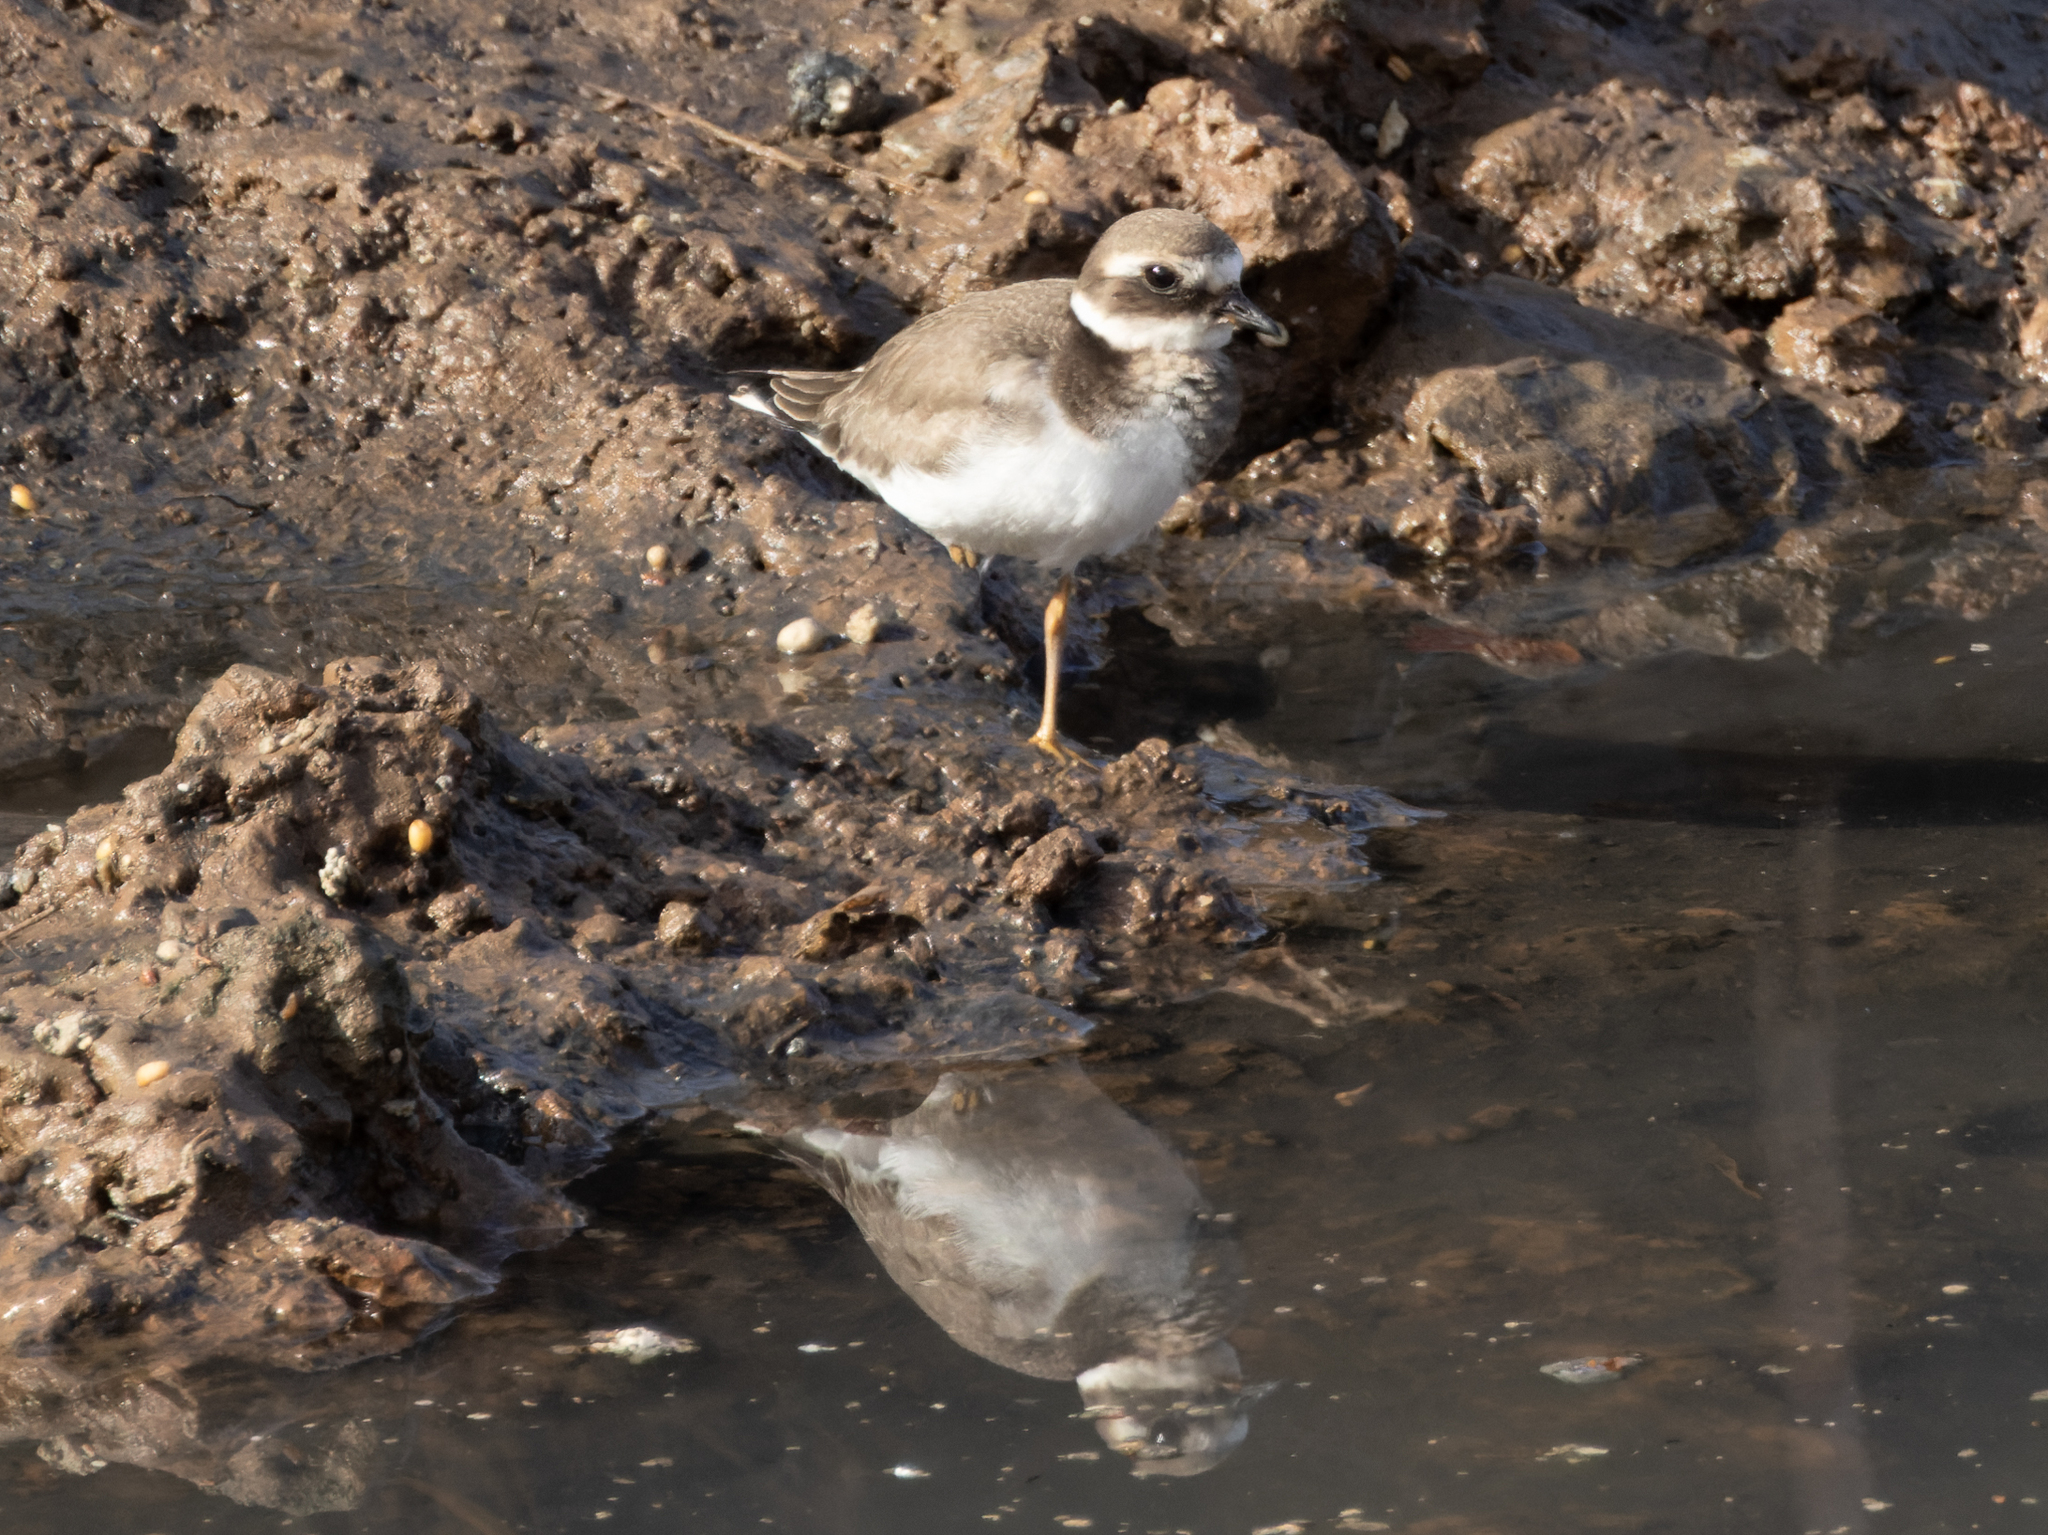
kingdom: Animalia
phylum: Chordata
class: Aves
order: Charadriiformes
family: Charadriidae
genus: Charadrius
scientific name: Charadrius hiaticula
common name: Common ringed plover
